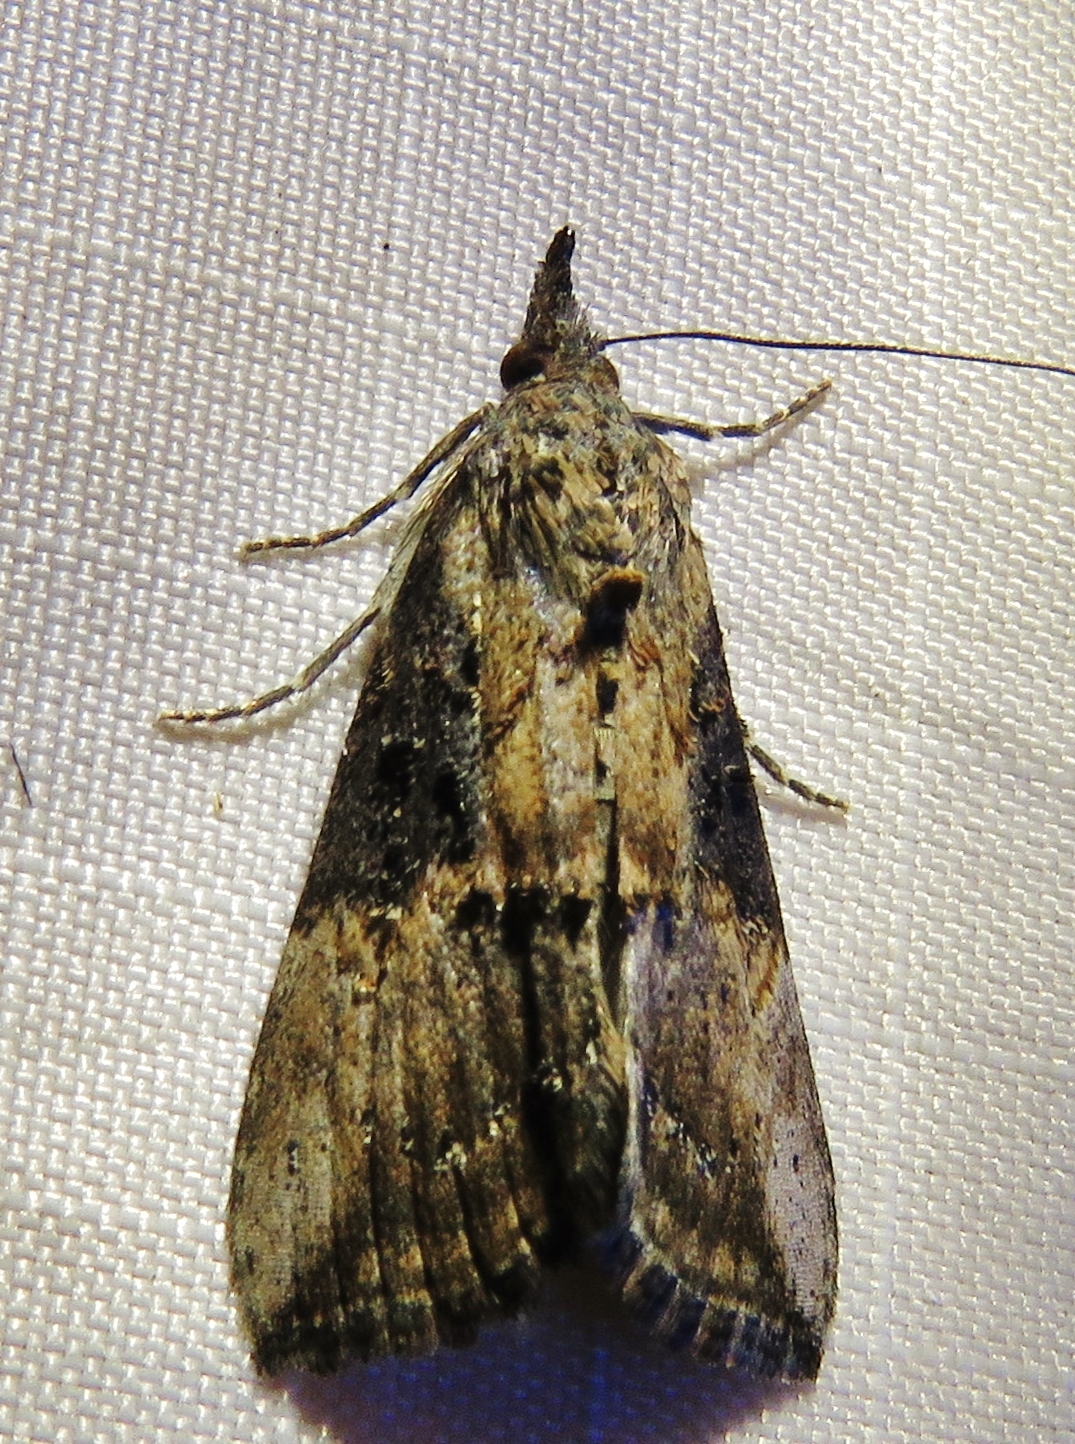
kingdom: Animalia
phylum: Arthropoda
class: Insecta
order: Lepidoptera
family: Erebidae
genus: Hypena
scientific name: Hypena scabra
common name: Green cloverworm
